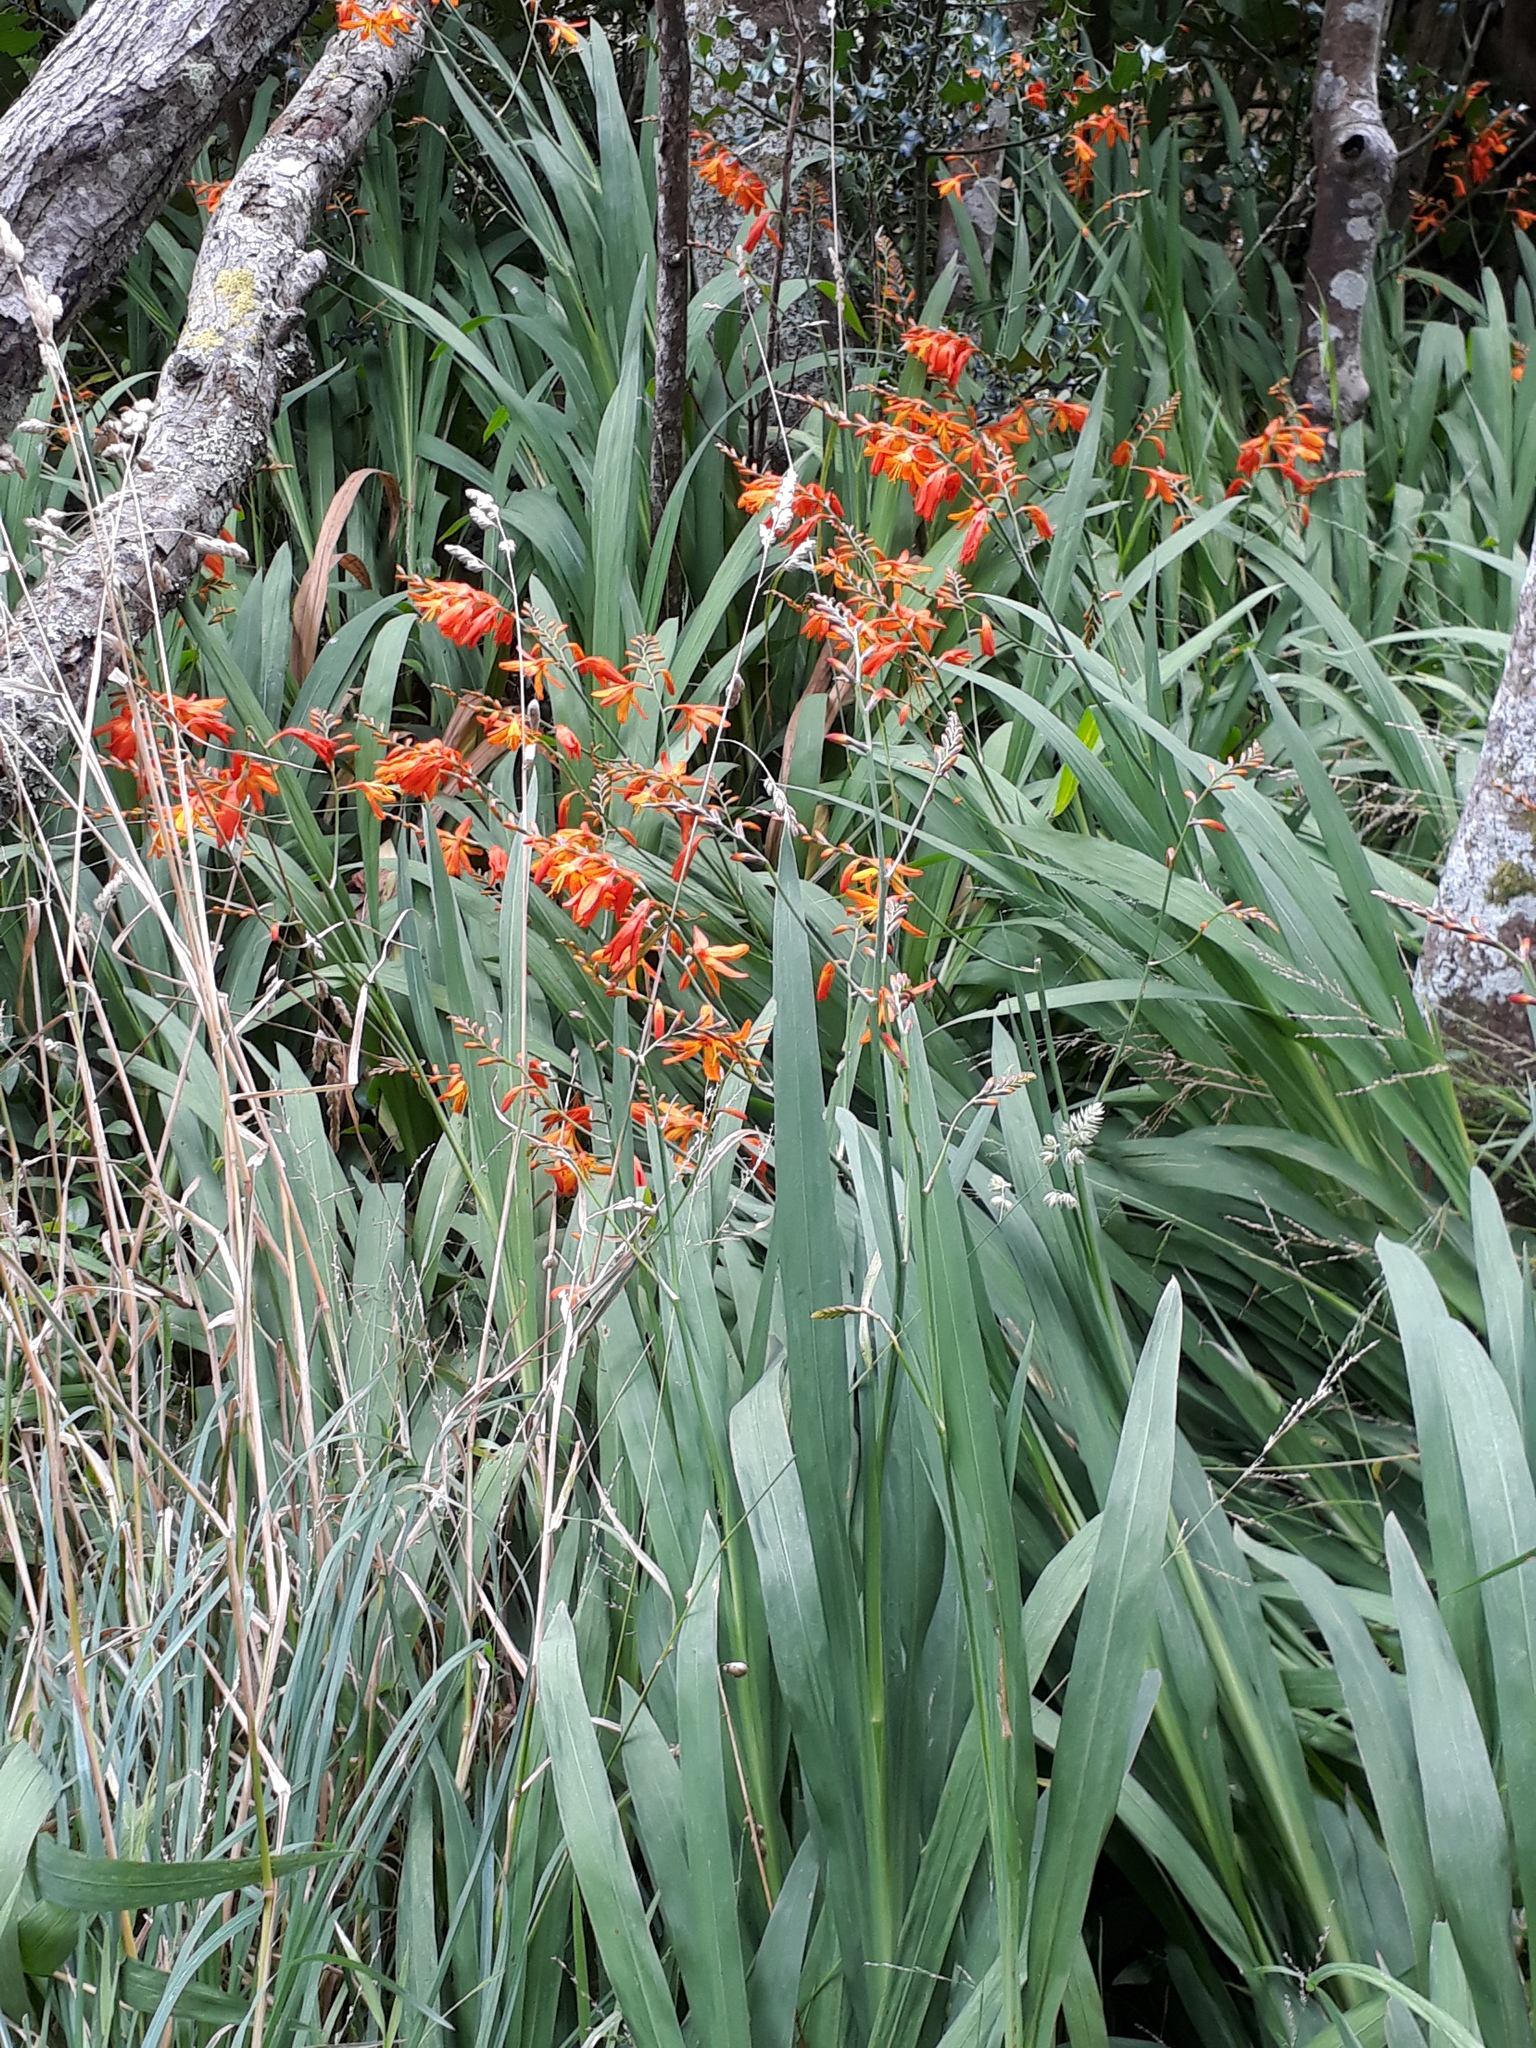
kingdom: Plantae
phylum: Tracheophyta
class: Liliopsida
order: Asparagales
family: Iridaceae
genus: Crocosmia
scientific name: Crocosmia crocosmiiflora
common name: Montbretia
